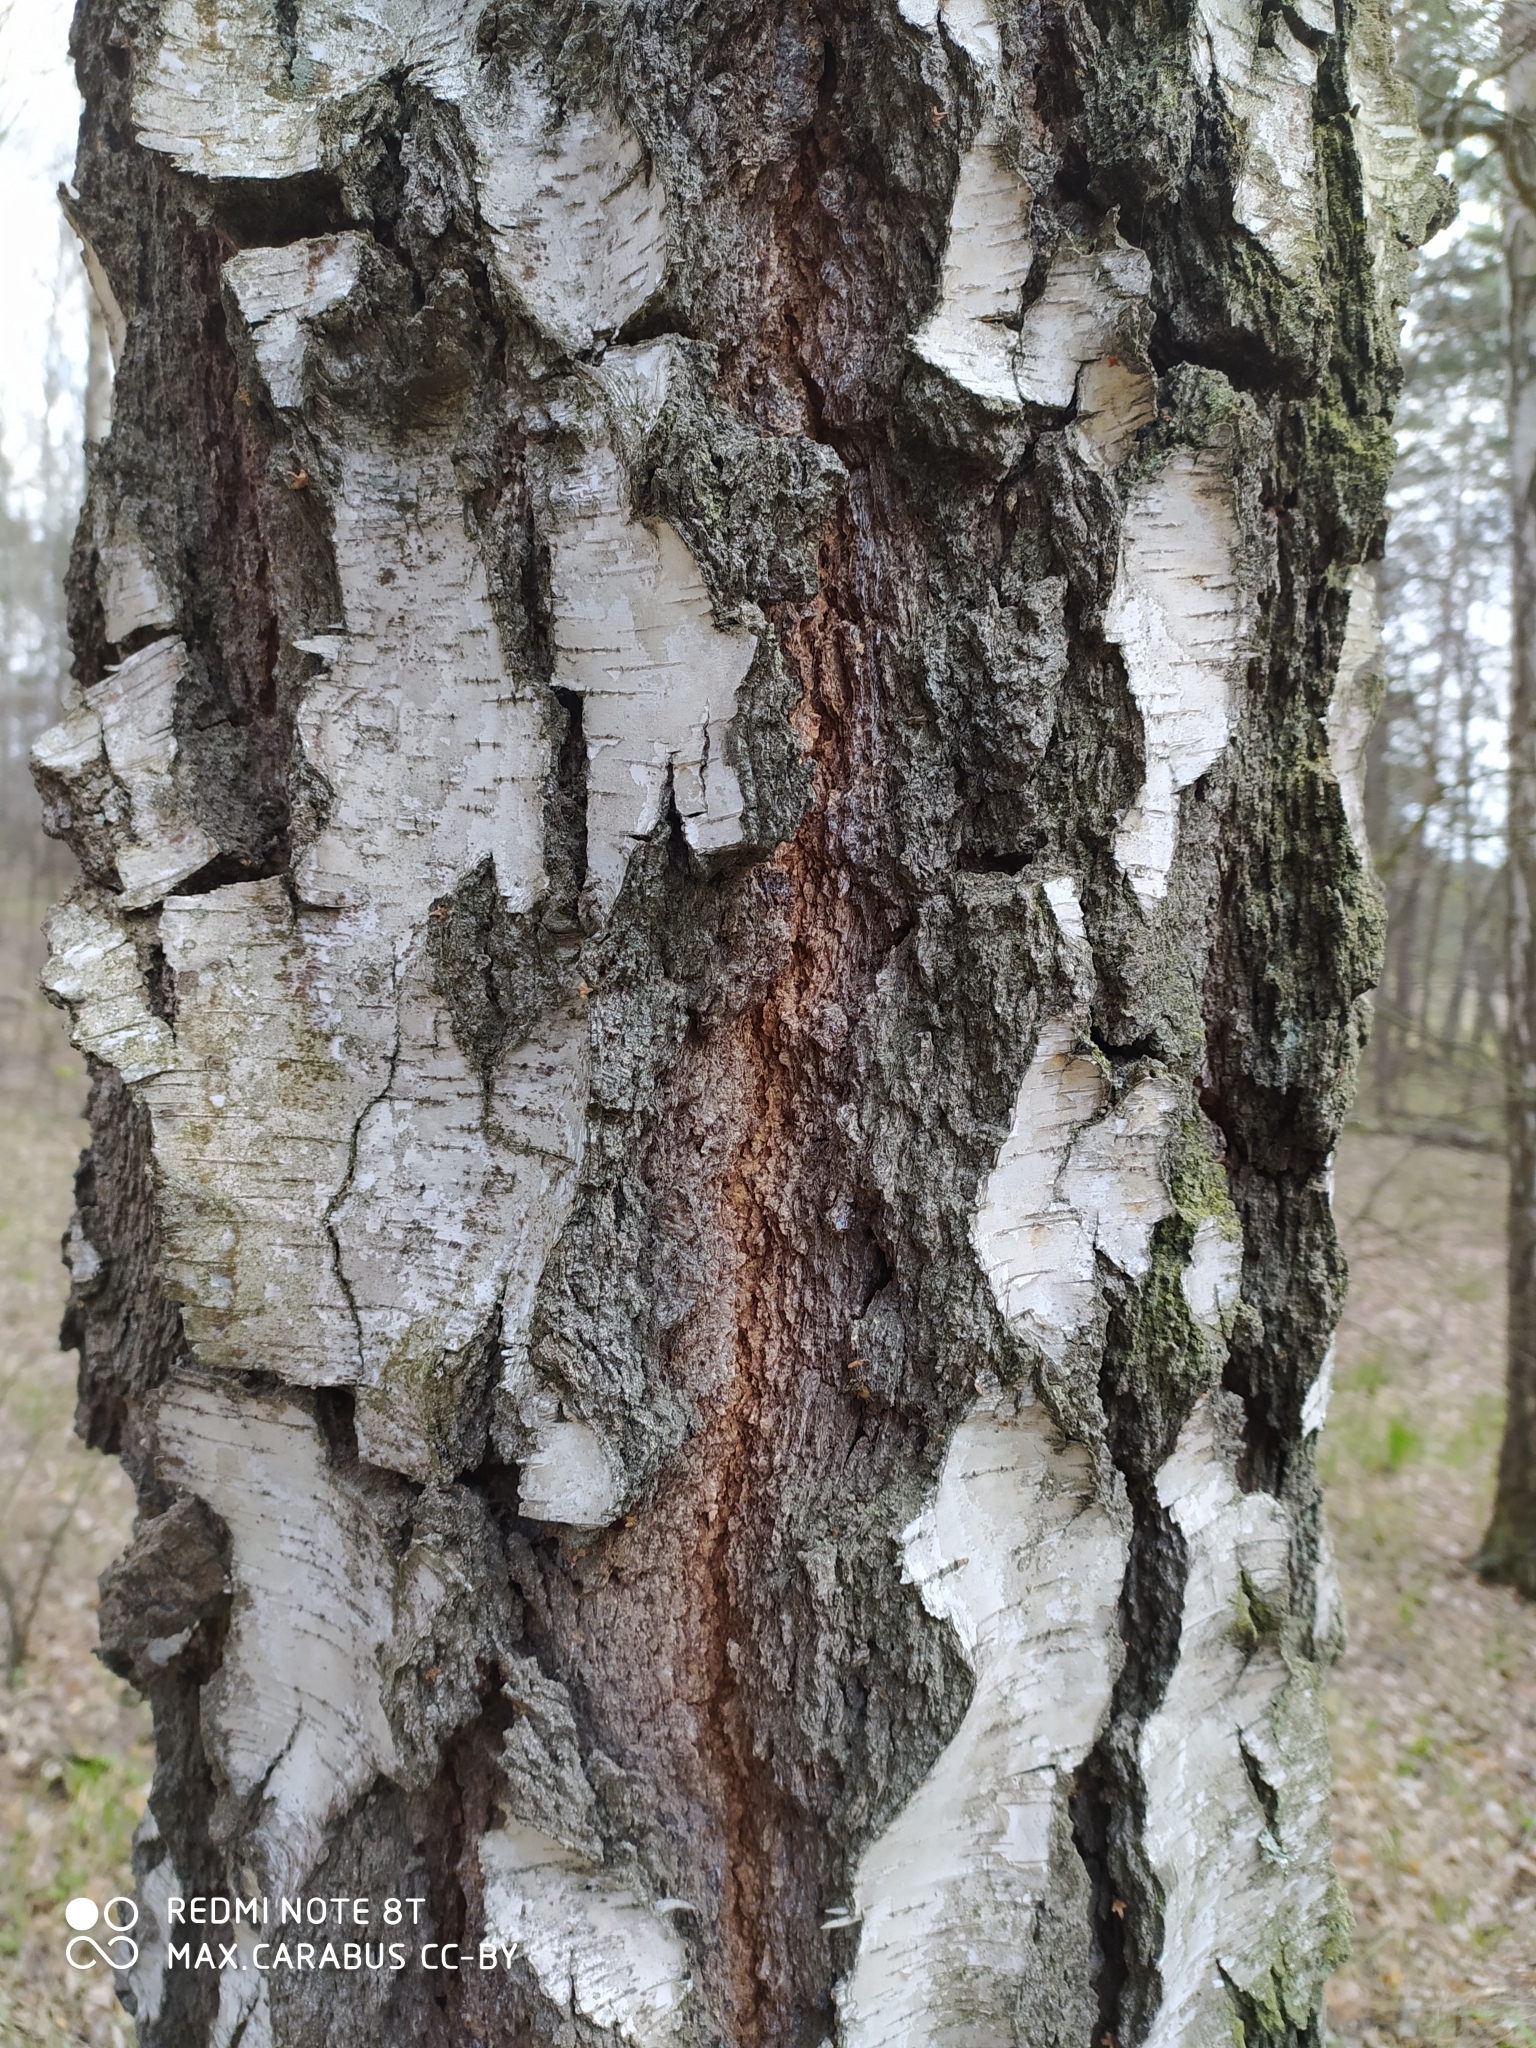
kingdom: Plantae
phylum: Tracheophyta
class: Magnoliopsida
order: Fagales
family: Betulaceae
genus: Betula
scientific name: Betula pendula
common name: Silver birch
